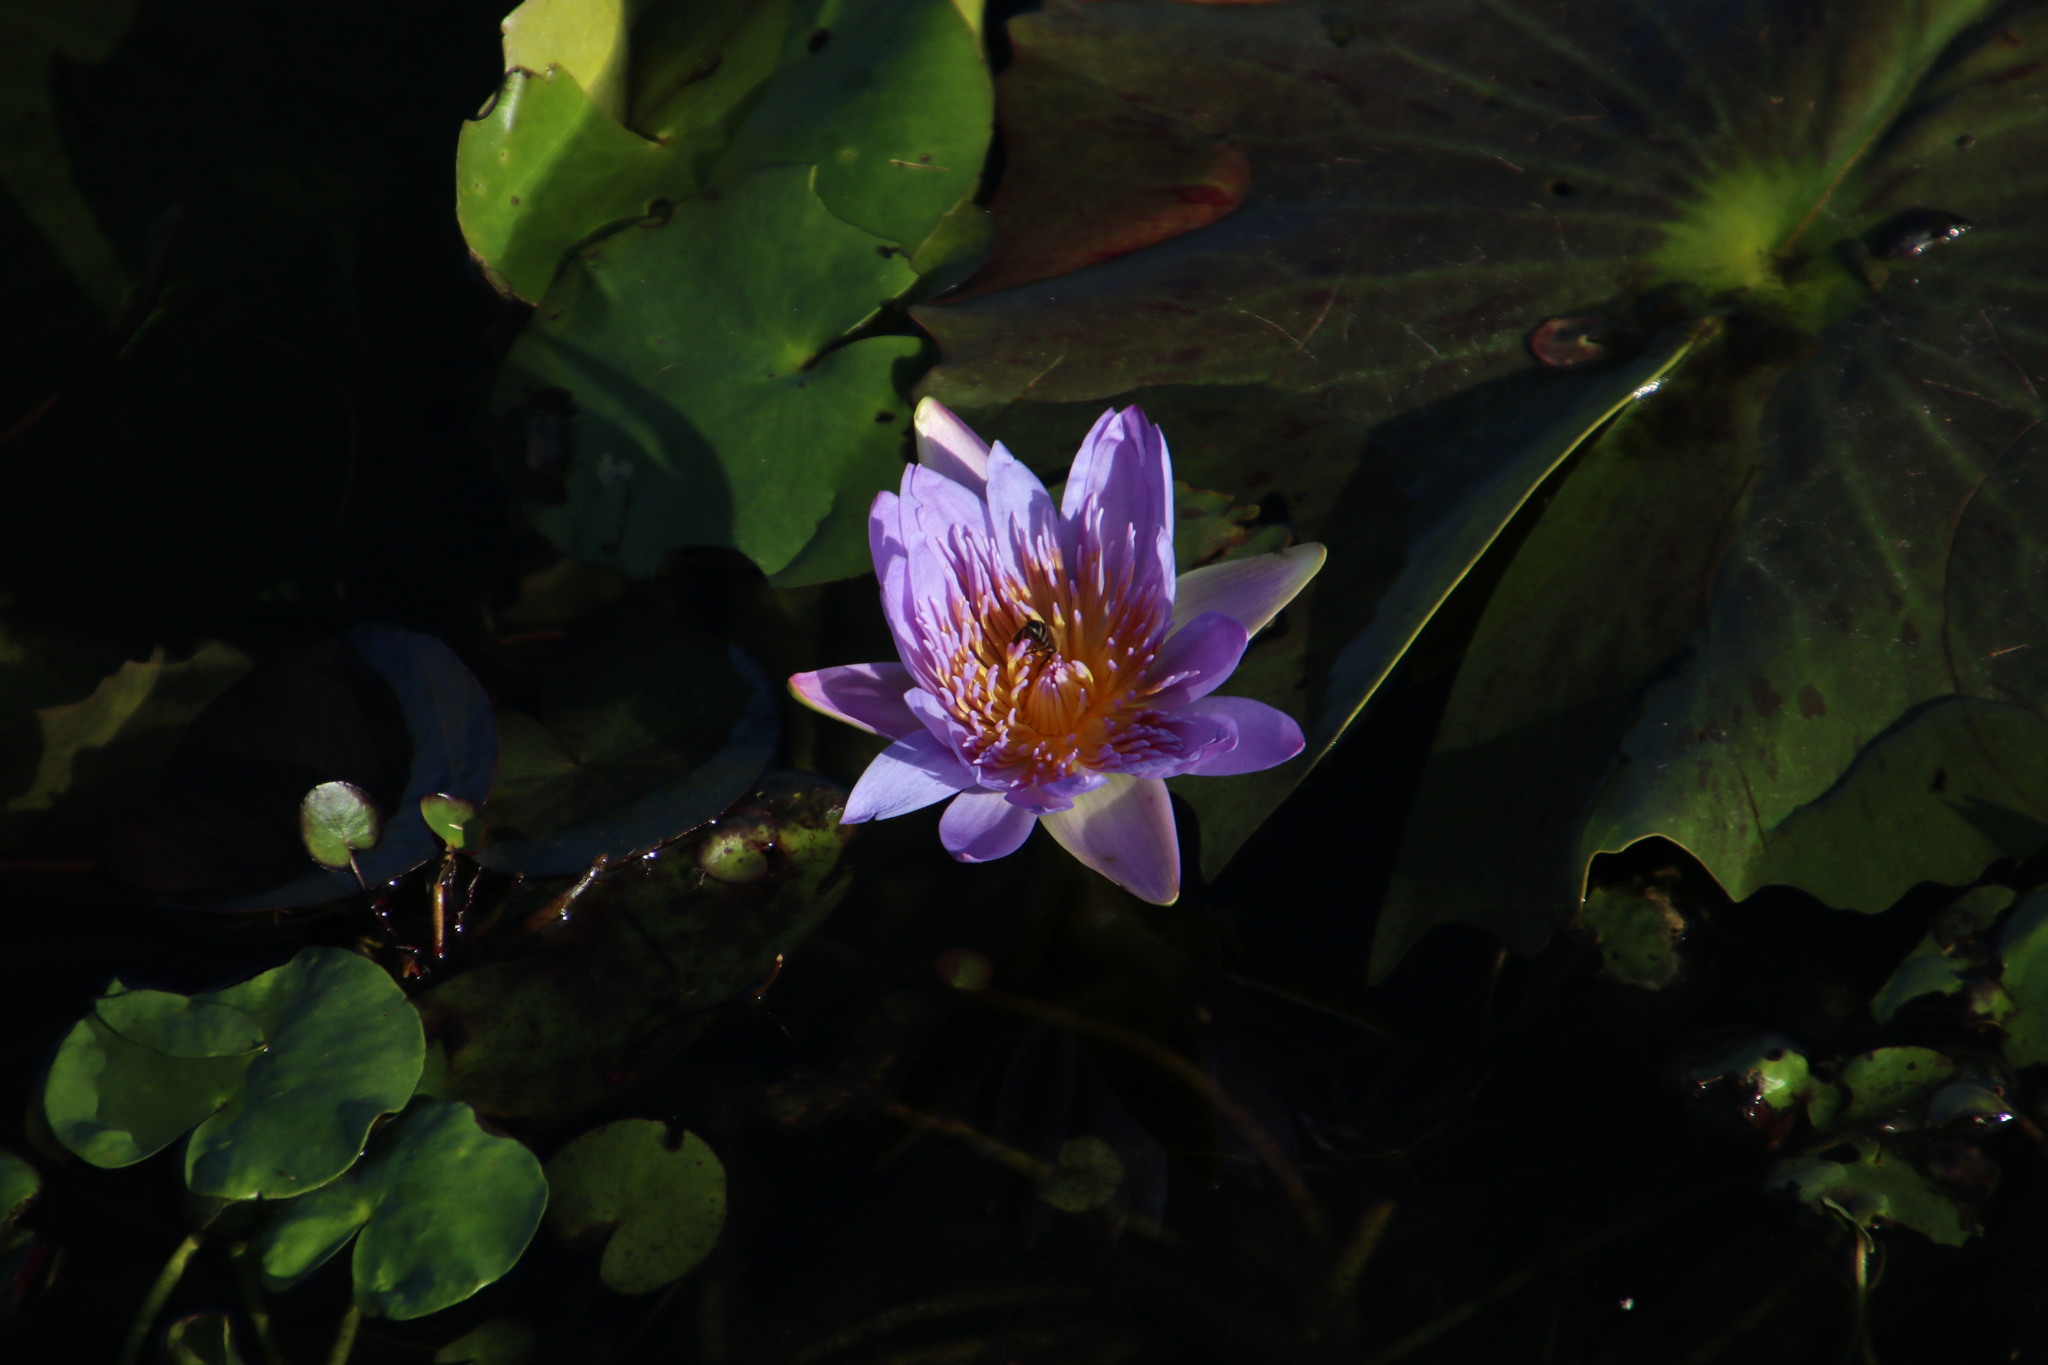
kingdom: Plantae
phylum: Tracheophyta
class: Magnoliopsida
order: Nymphaeales
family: Nymphaeaceae
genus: Nymphaea
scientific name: Nymphaea nouchali
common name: Blue lotus
